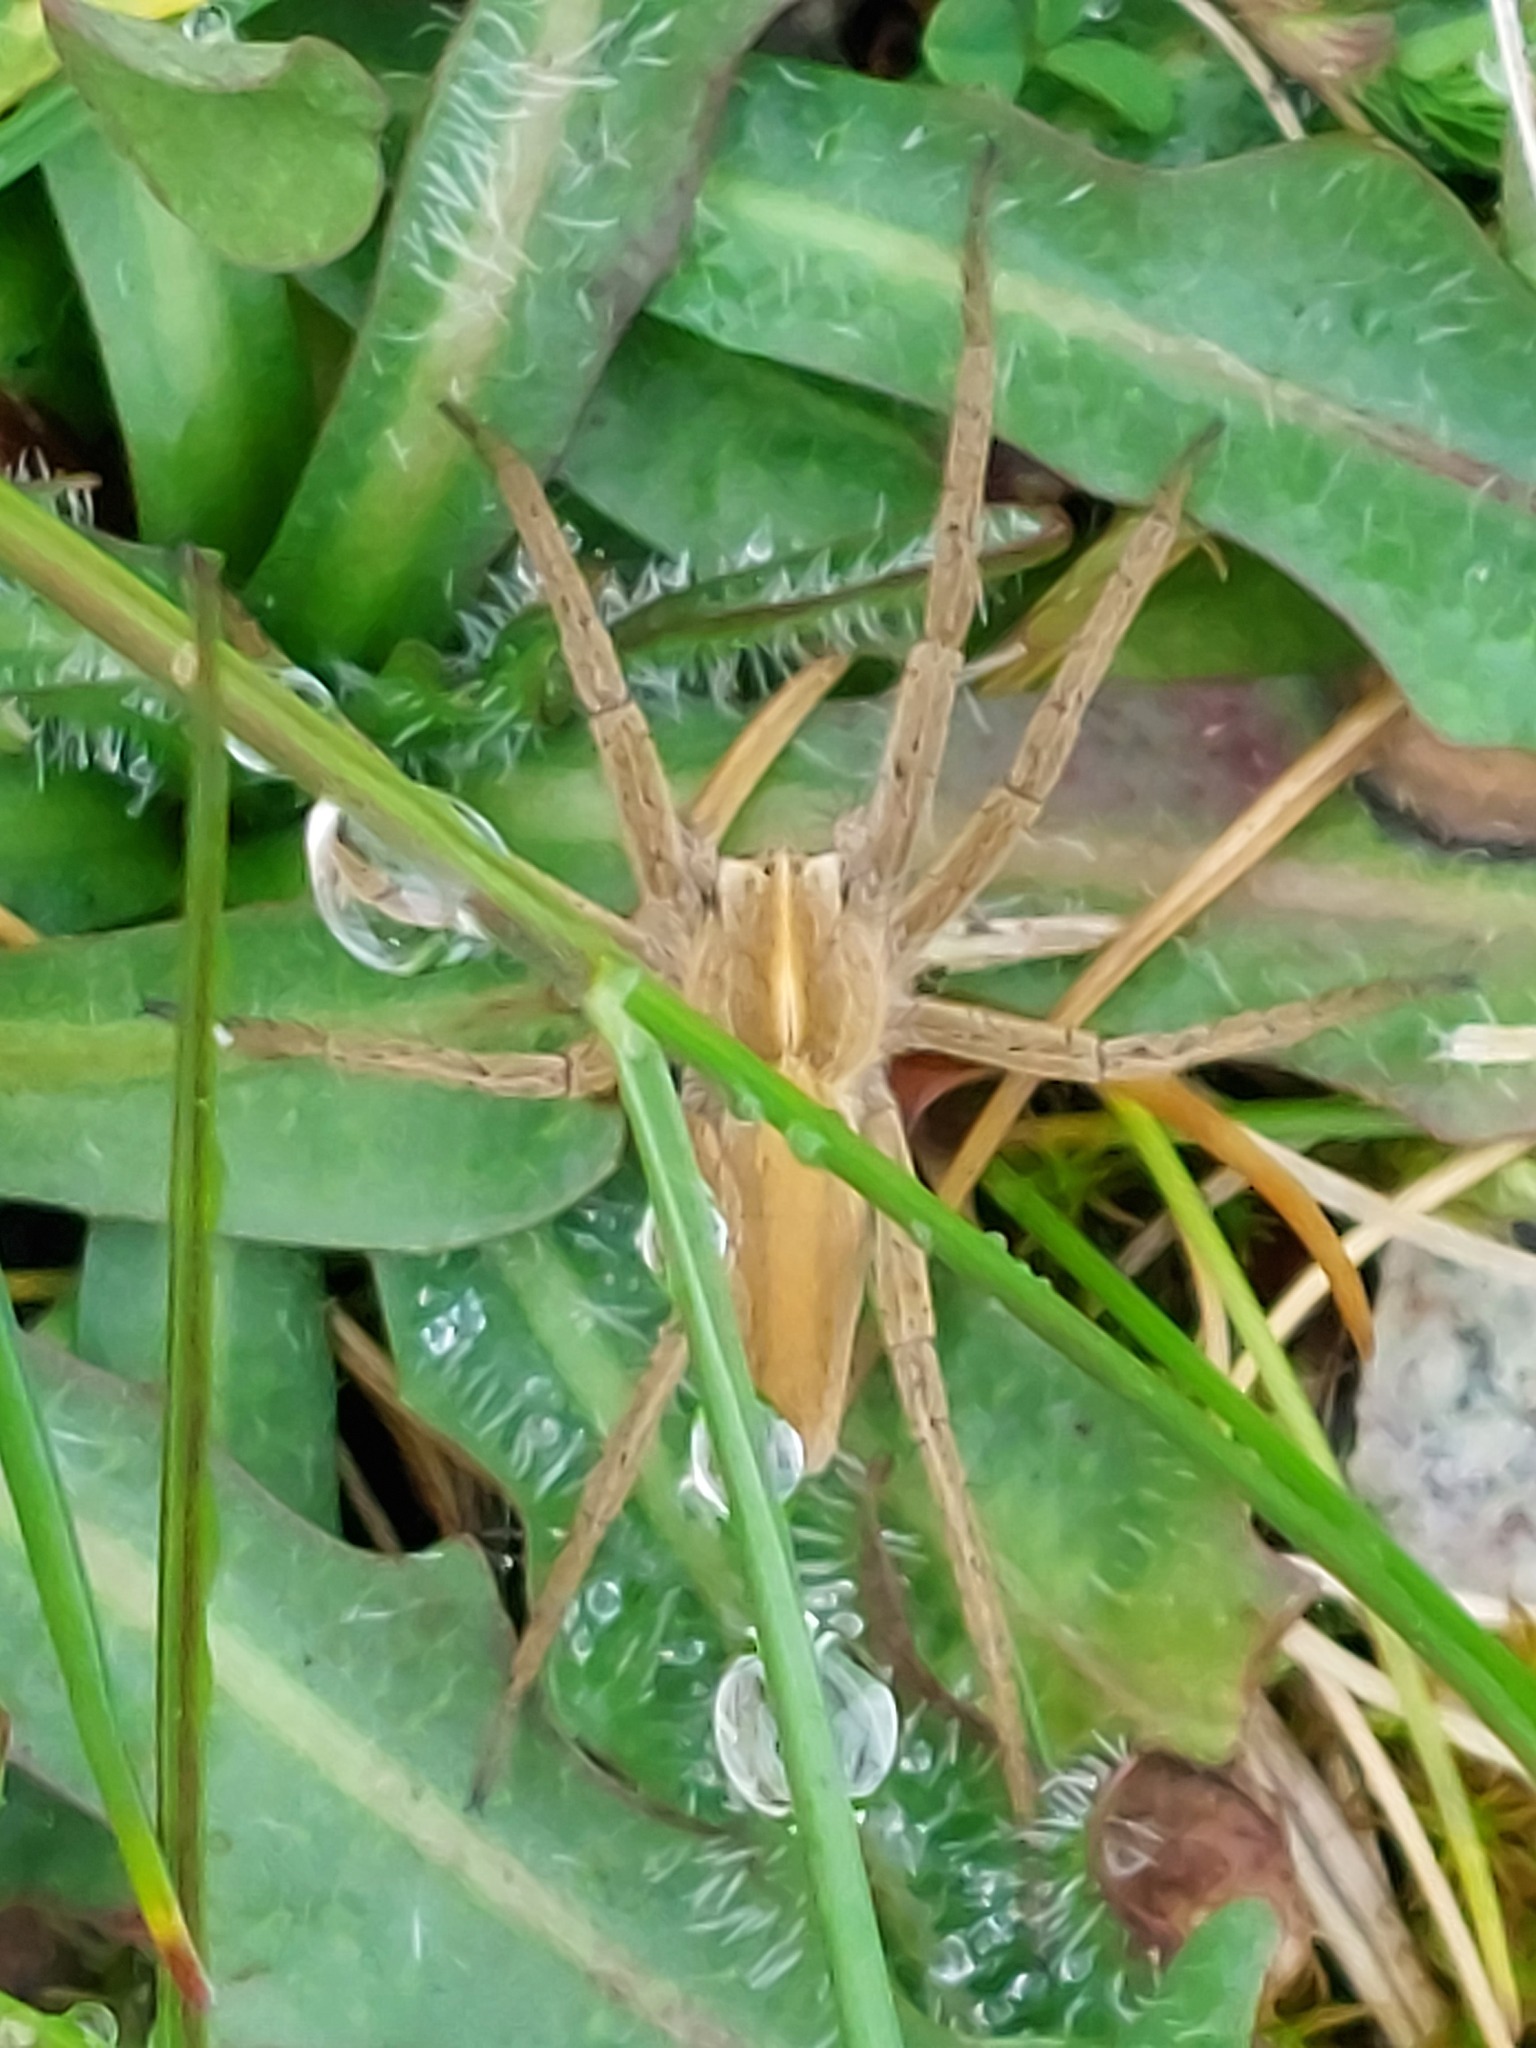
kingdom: Animalia
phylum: Arthropoda
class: Arachnida
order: Araneae
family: Pisauridae
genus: Pisaura
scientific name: Pisaura mirabilis
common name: Tent spider
